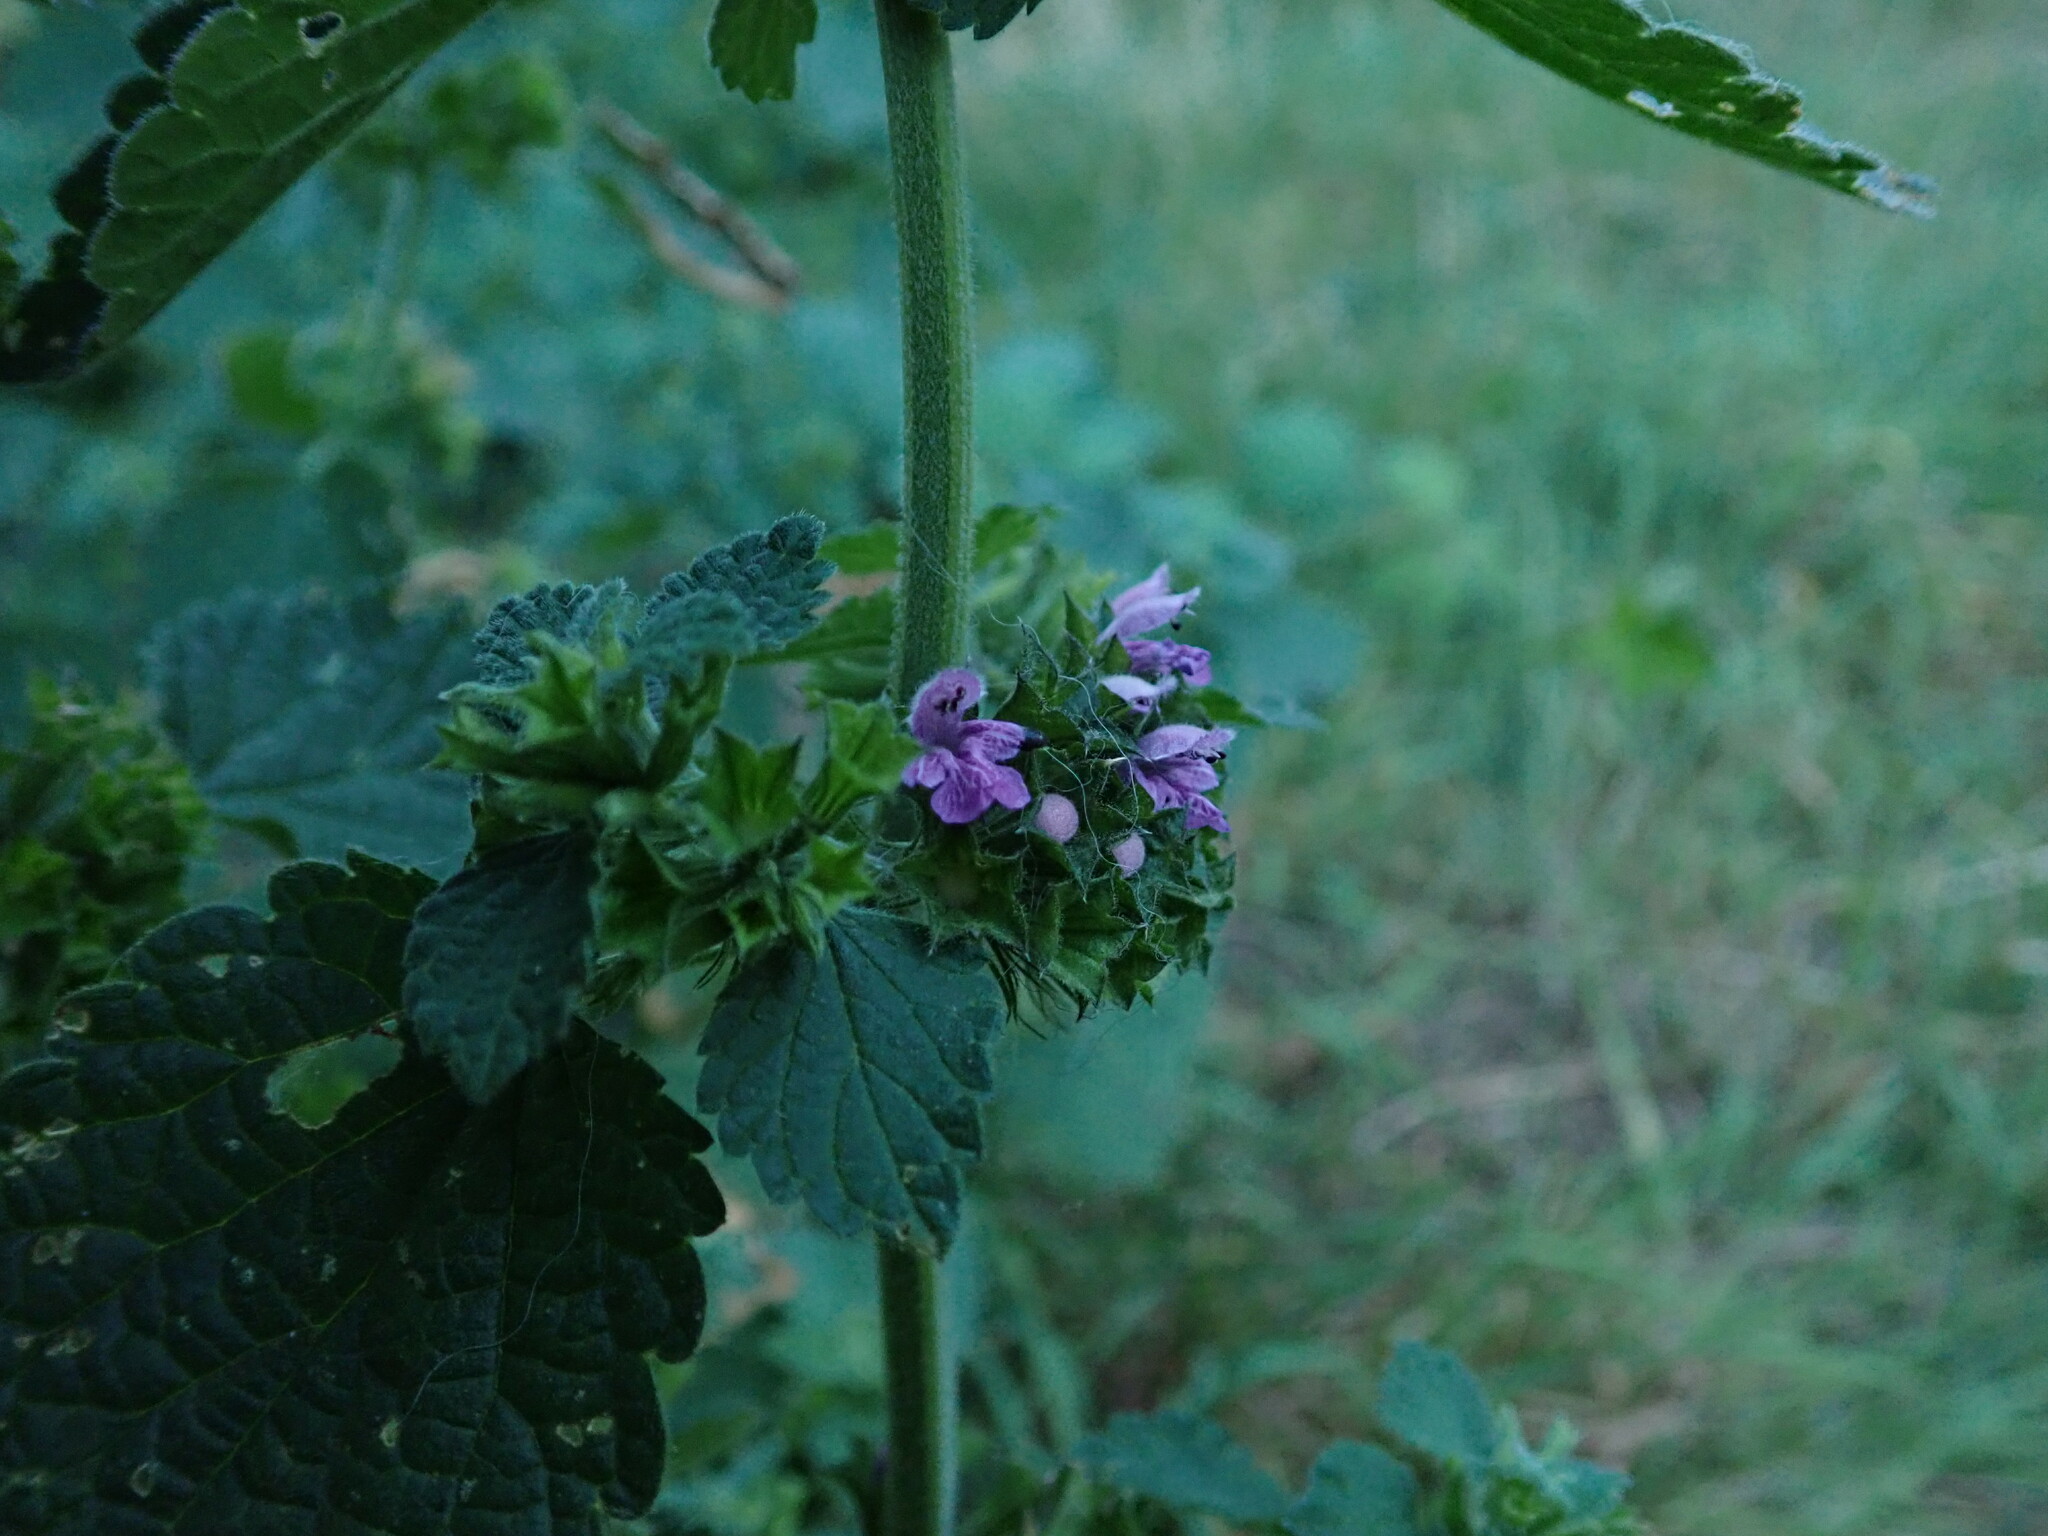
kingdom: Plantae
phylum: Tracheophyta
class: Magnoliopsida
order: Lamiales
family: Lamiaceae
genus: Ballota
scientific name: Ballota nigra
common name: Black horehound
